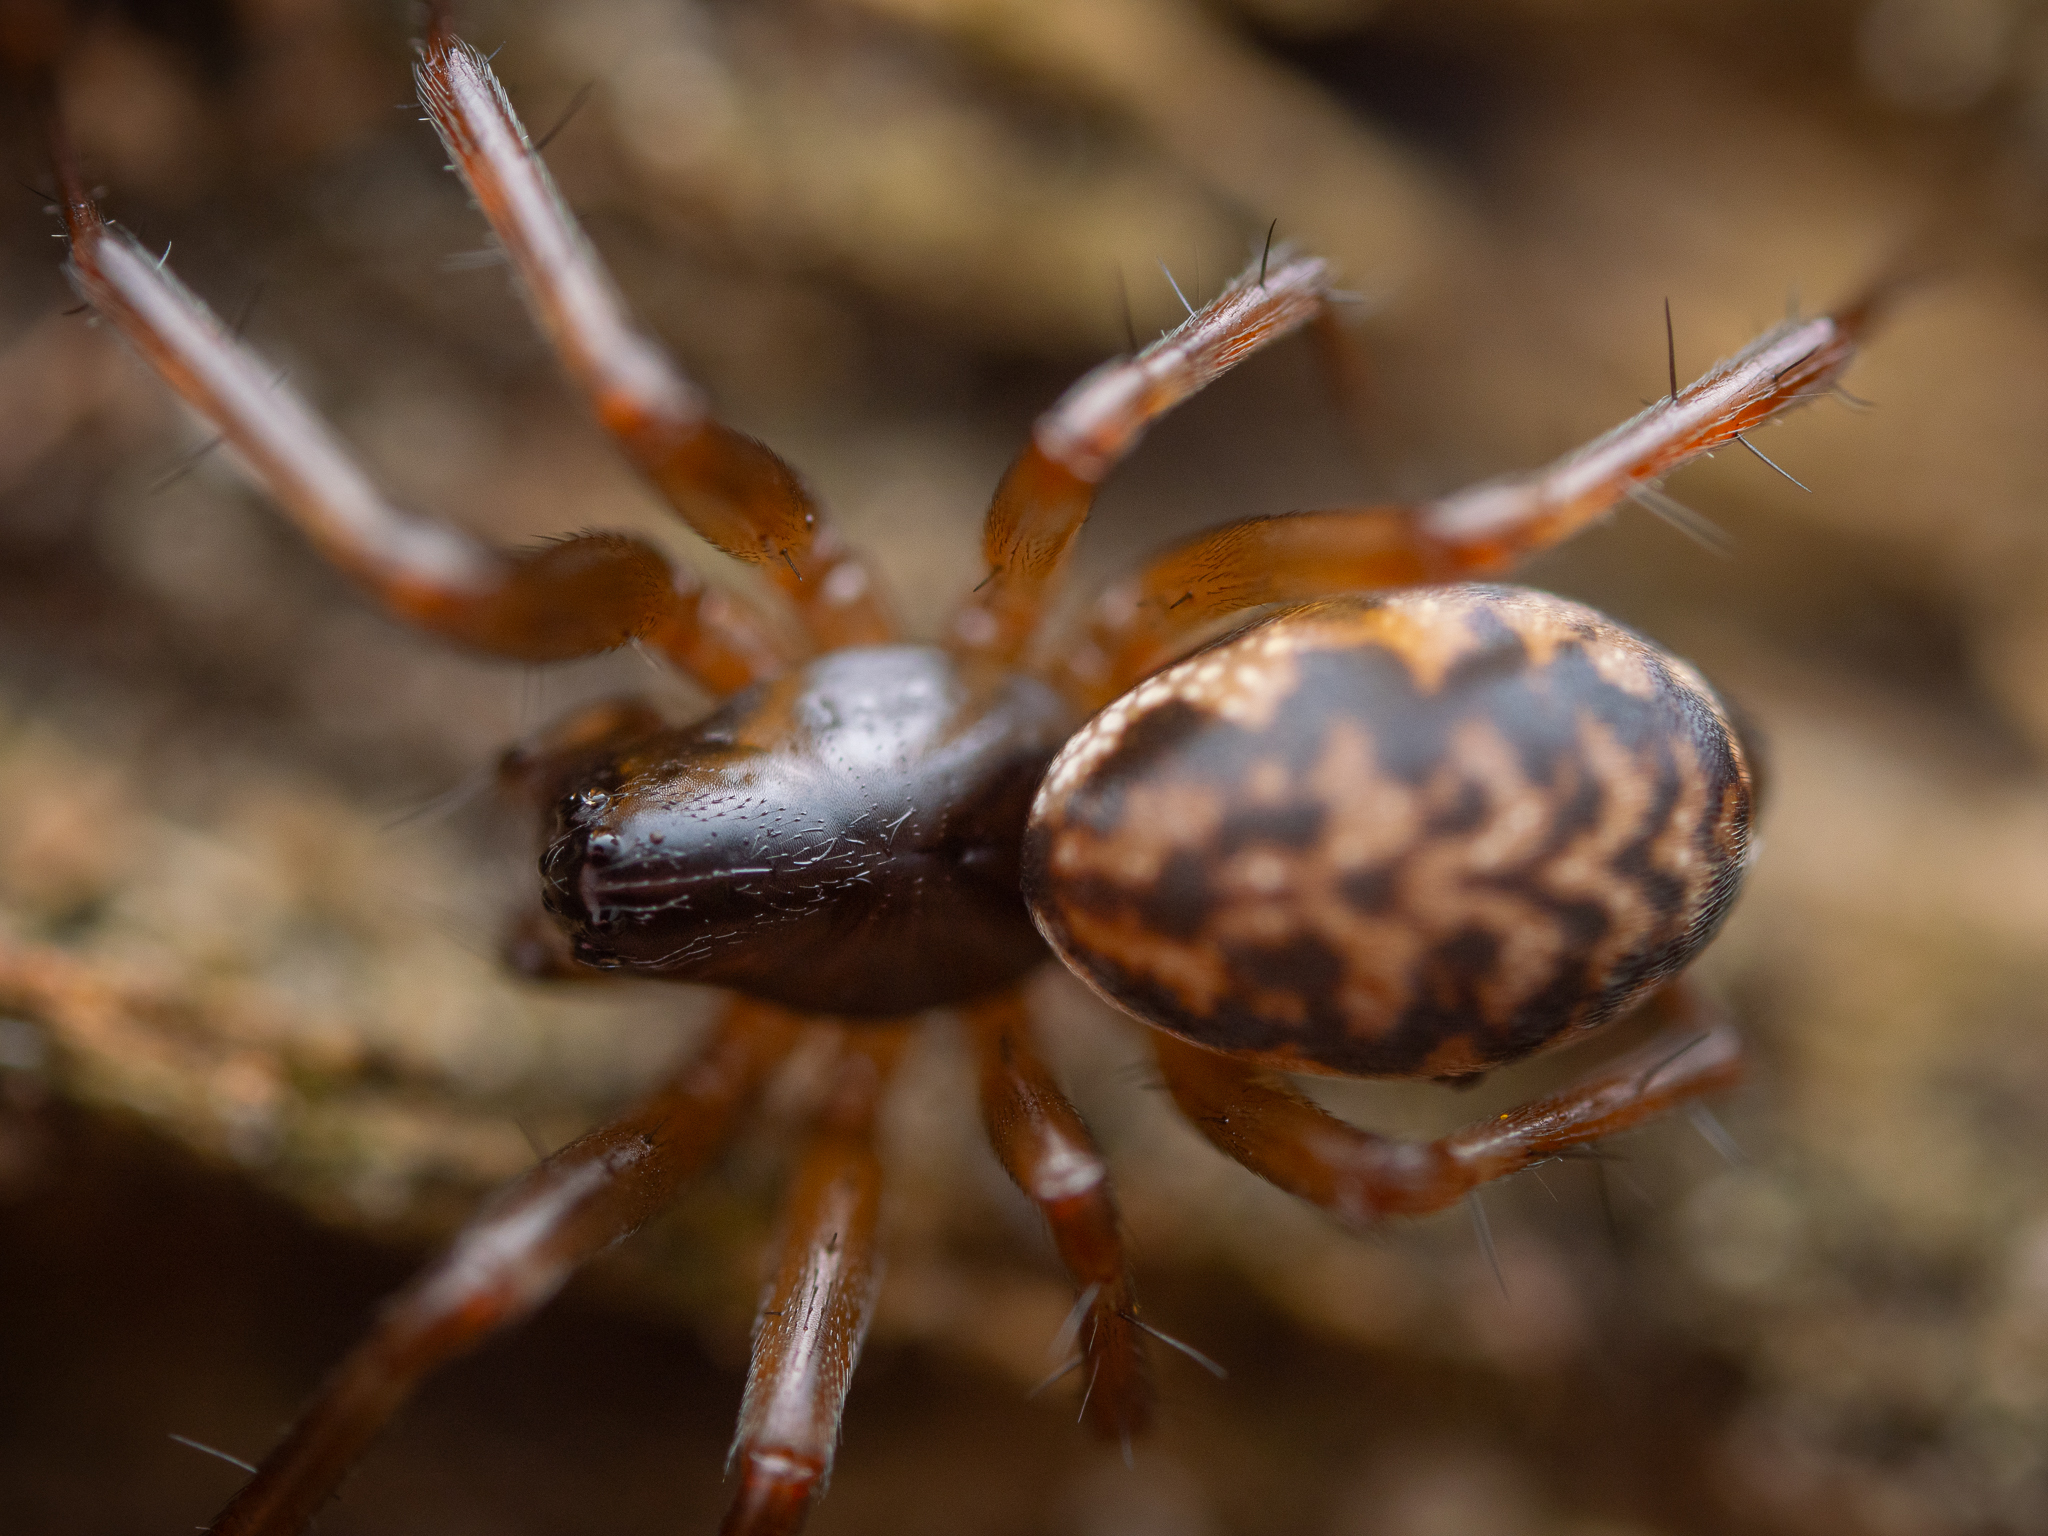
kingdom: Animalia
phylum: Arthropoda
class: Arachnida
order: Araneae
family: Linyphiidae
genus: Neriene
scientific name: Neriene clathrata
